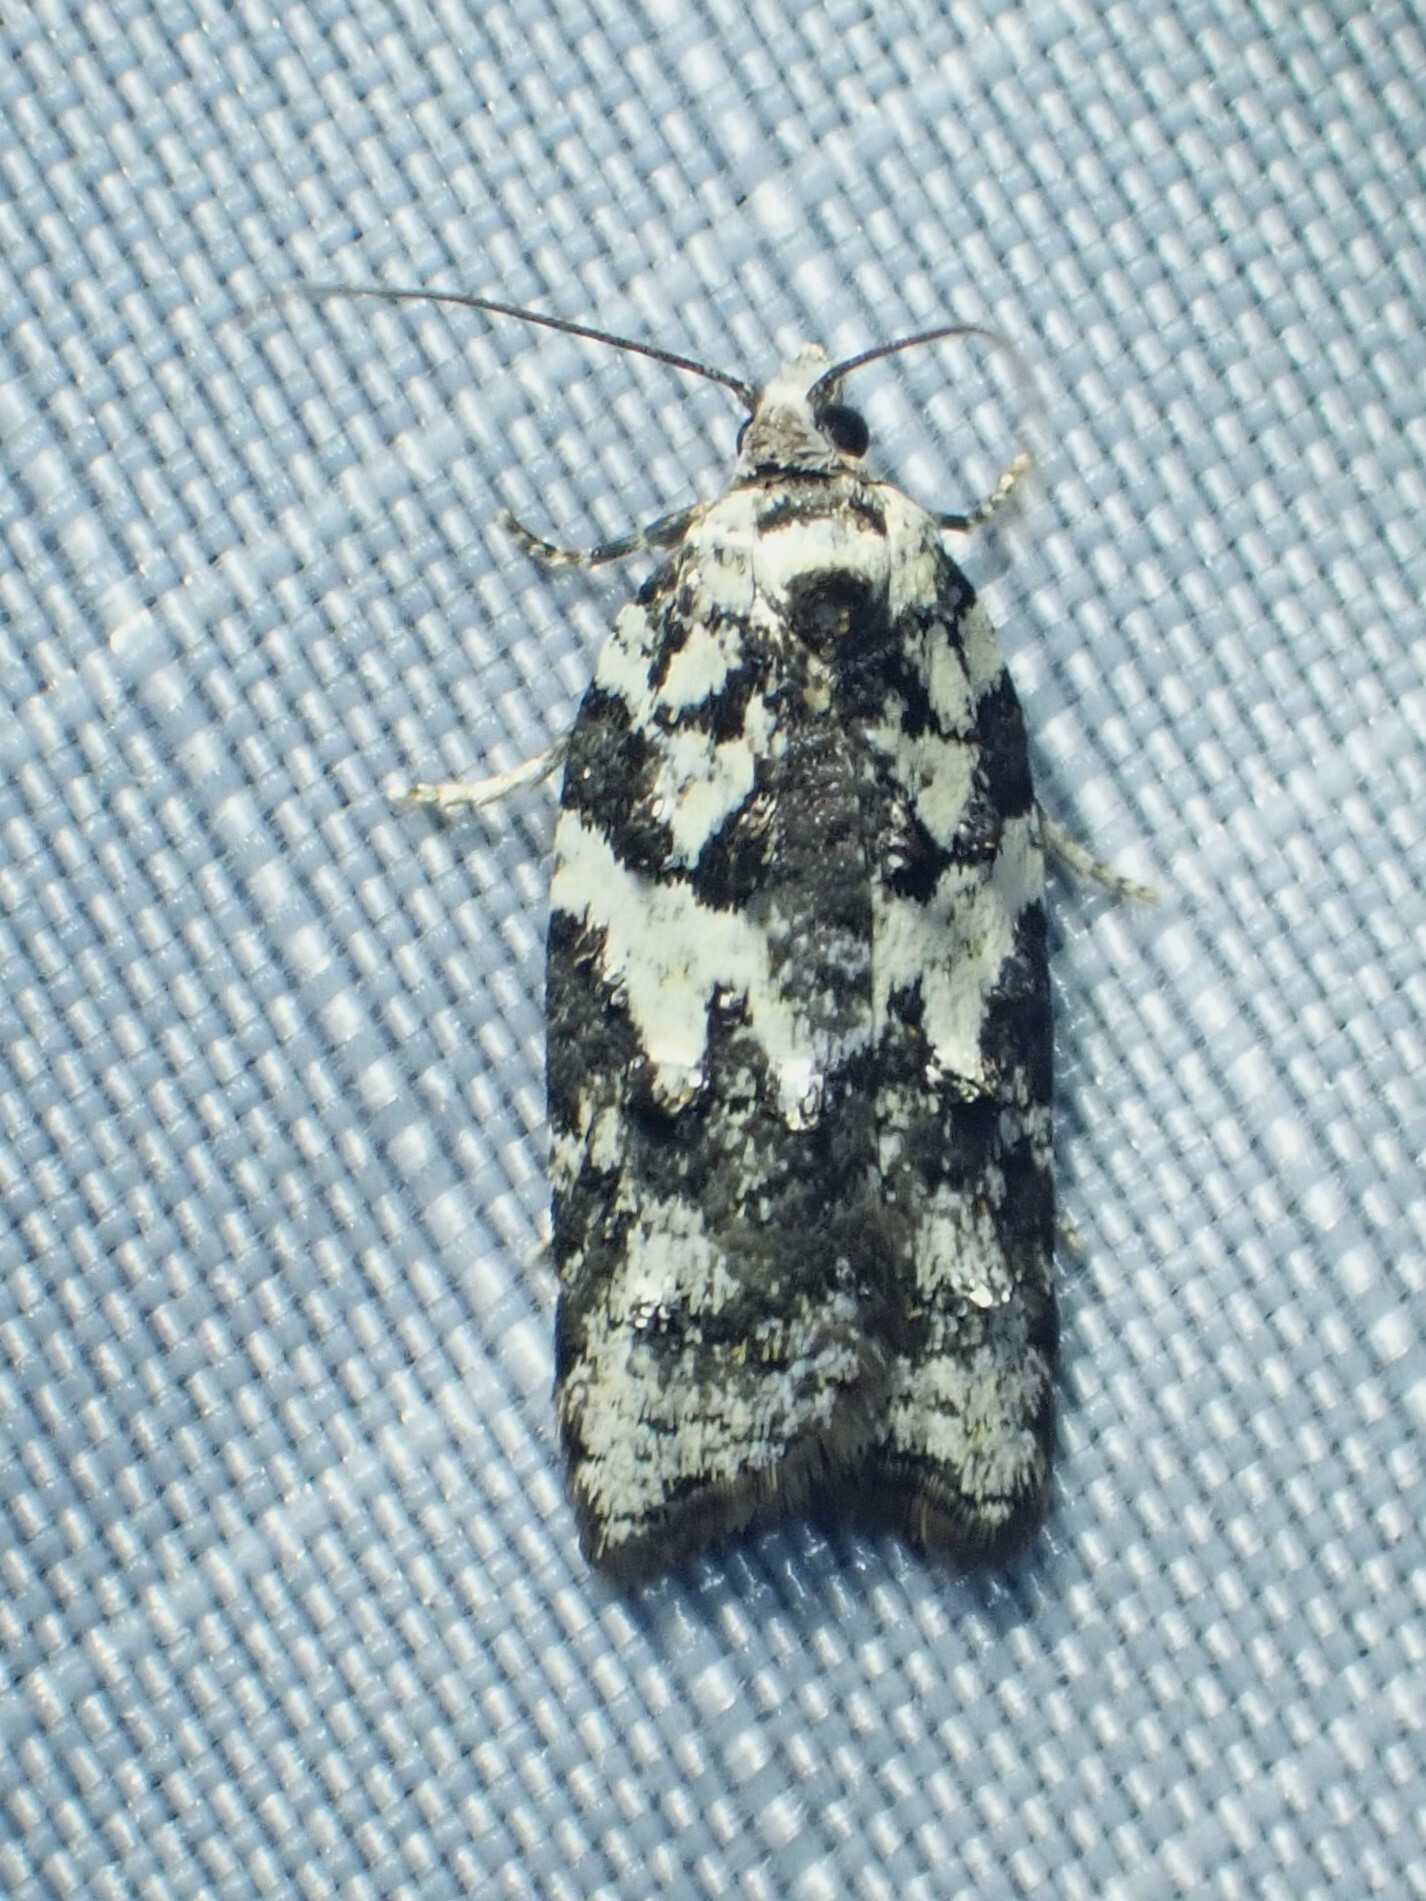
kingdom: Animalia
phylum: Arthropoda
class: Insecta
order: Lepidoptera
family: Tortricidae
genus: Acleris
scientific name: Acleris variana
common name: Eastern black-headed budworm moth
